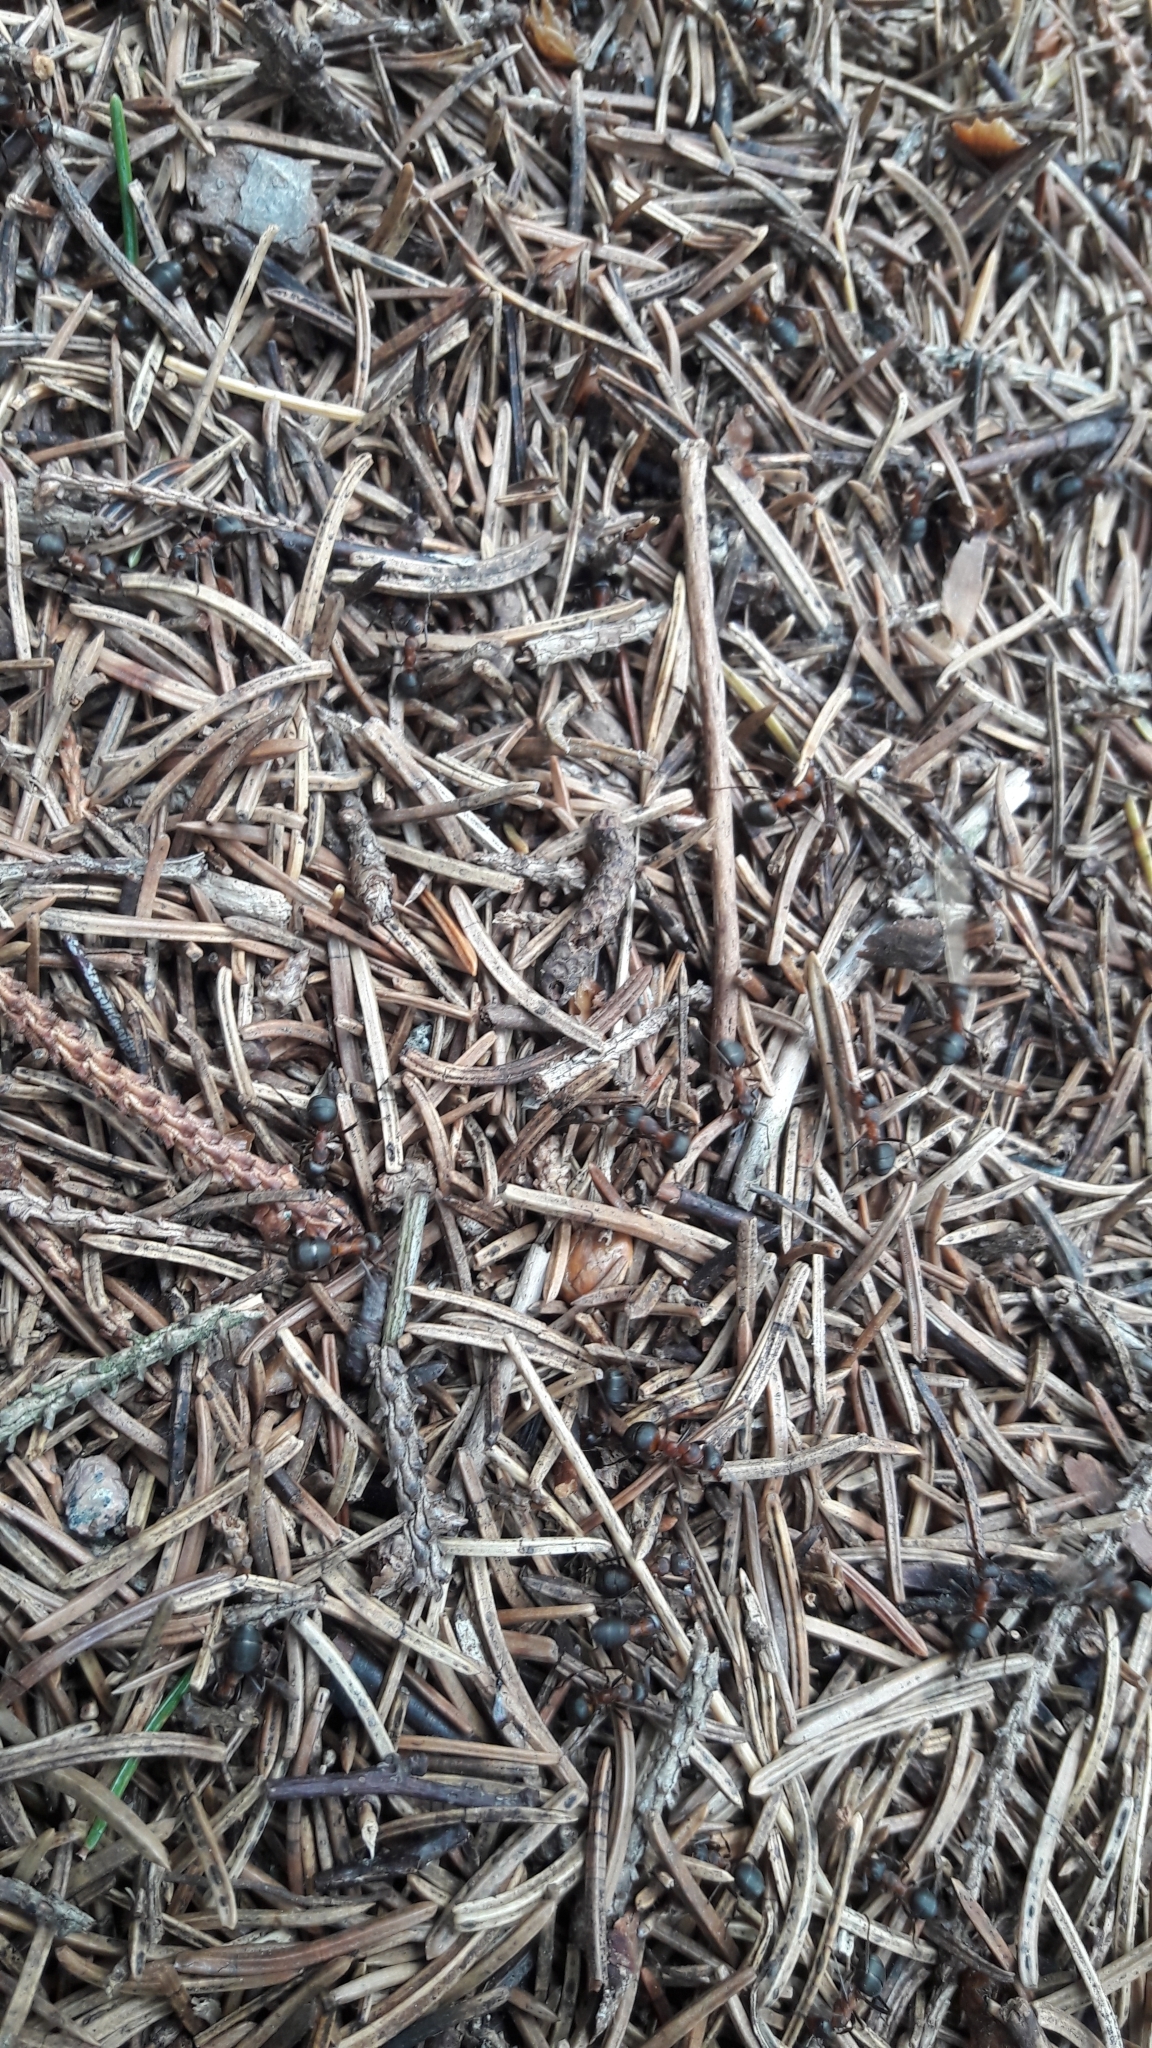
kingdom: Animalia
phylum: Arthropoda
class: Insecta
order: Hymenoptera
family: Formicidae
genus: Formica
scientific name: Formica rufa
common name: Red wood ant
